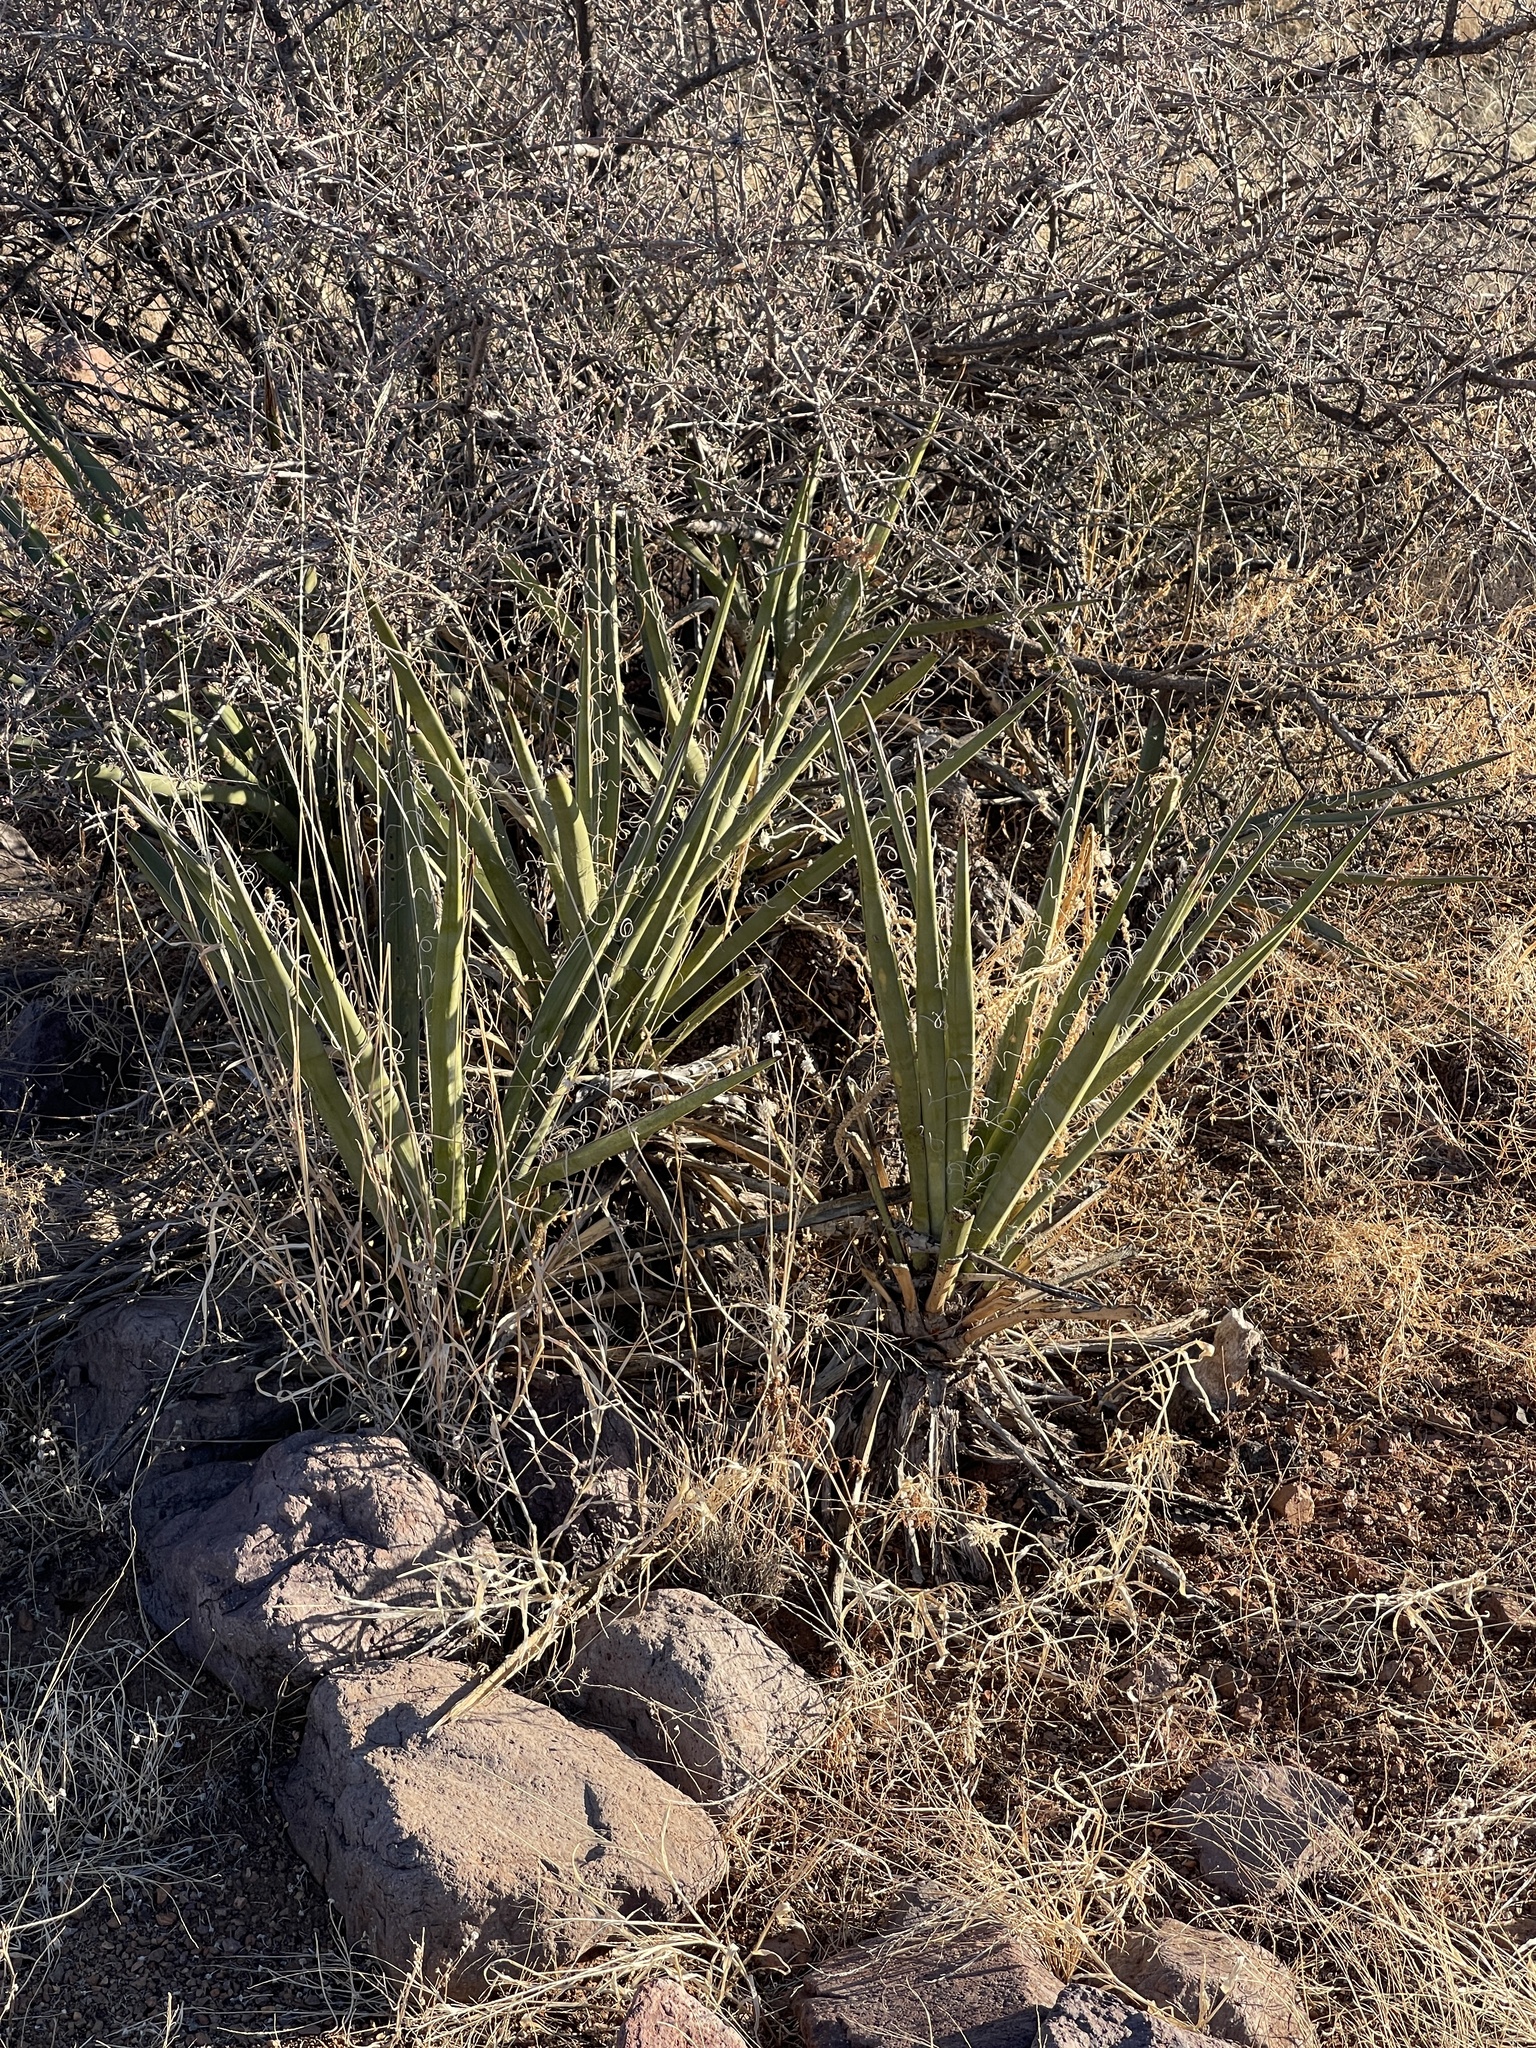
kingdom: Plantae
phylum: Tracheophyta
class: Liliopsida
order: Asparagales
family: Asparagaceae
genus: Yucca
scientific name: Yucca baccata
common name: Banana yucca
